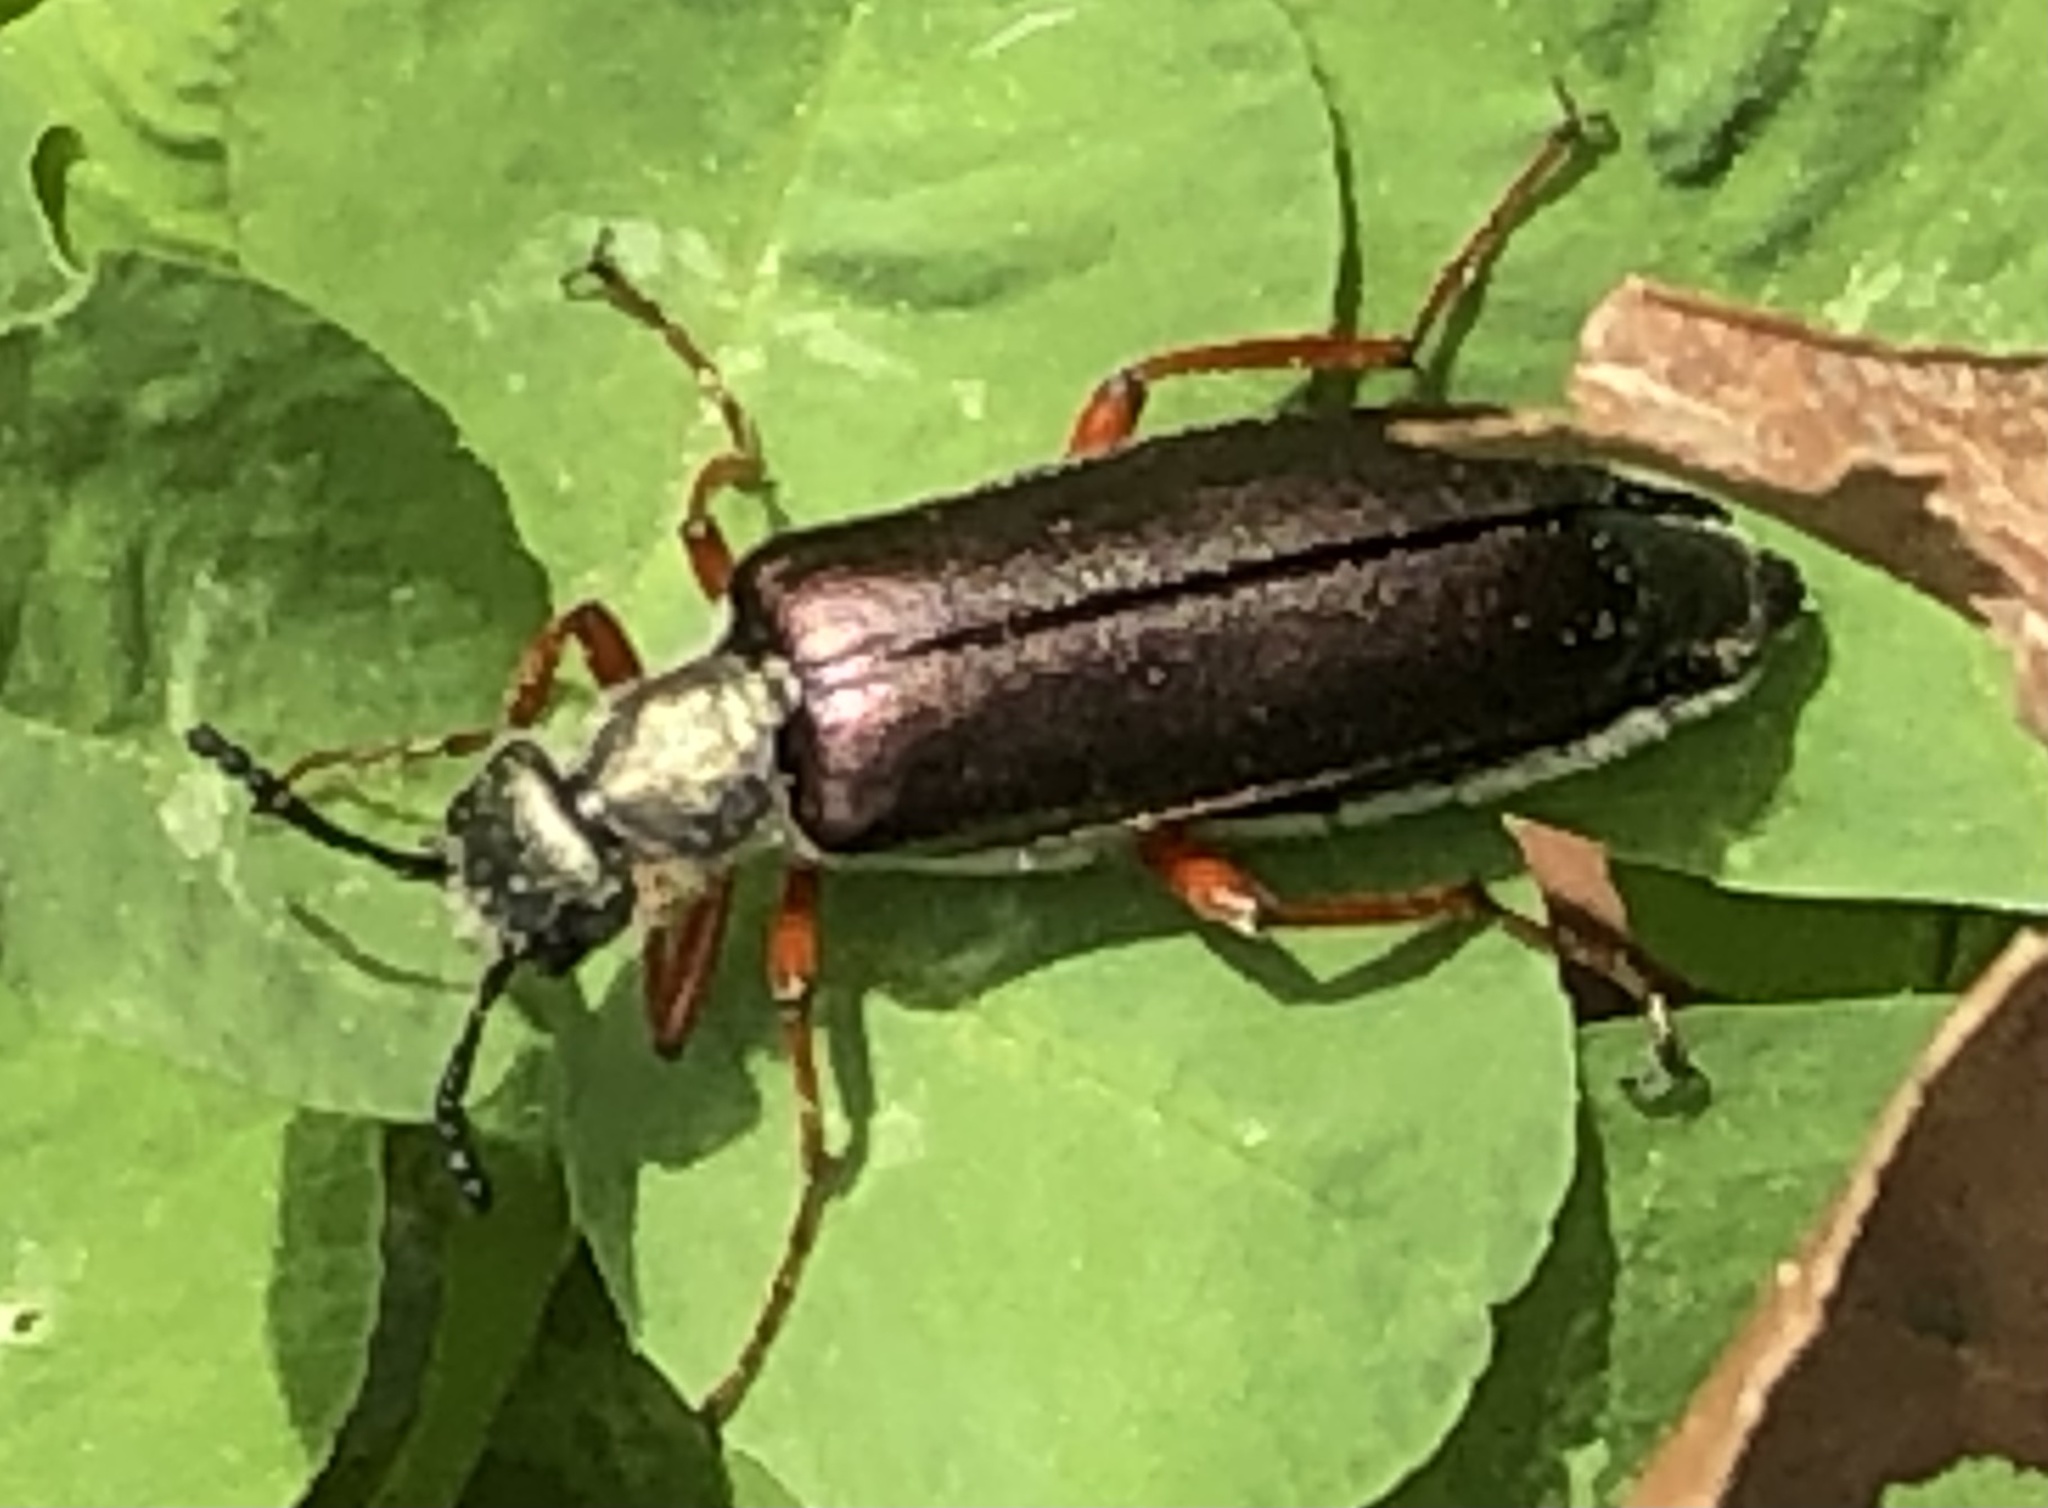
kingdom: Animalia
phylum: Arthropoda
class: Insecta
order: Coleoptera
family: Meloidae
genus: Lytta
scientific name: Lytta aenea
